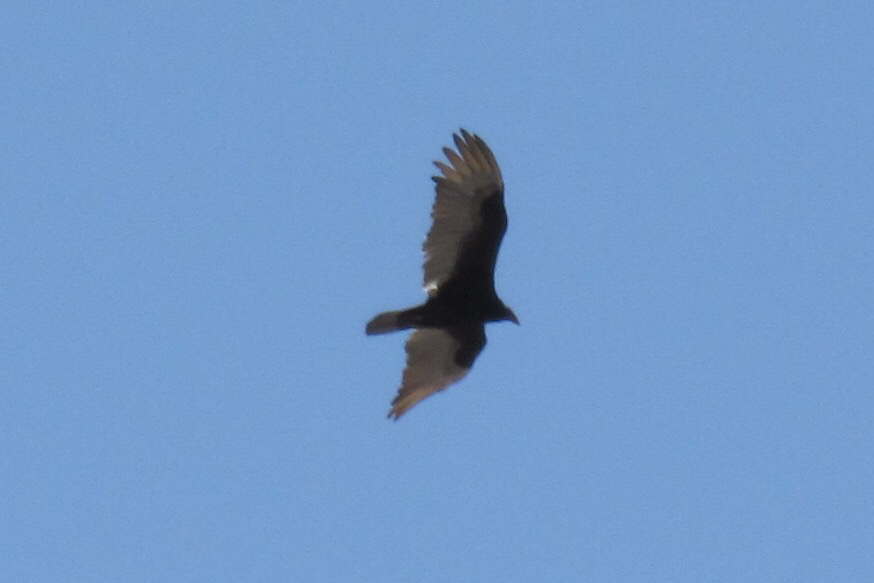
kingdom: Animalia
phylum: Chordata
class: Aves
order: Accipitriformes
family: Cathartidae
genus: Cathartes
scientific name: Cathartes aura
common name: Turkey vulture
